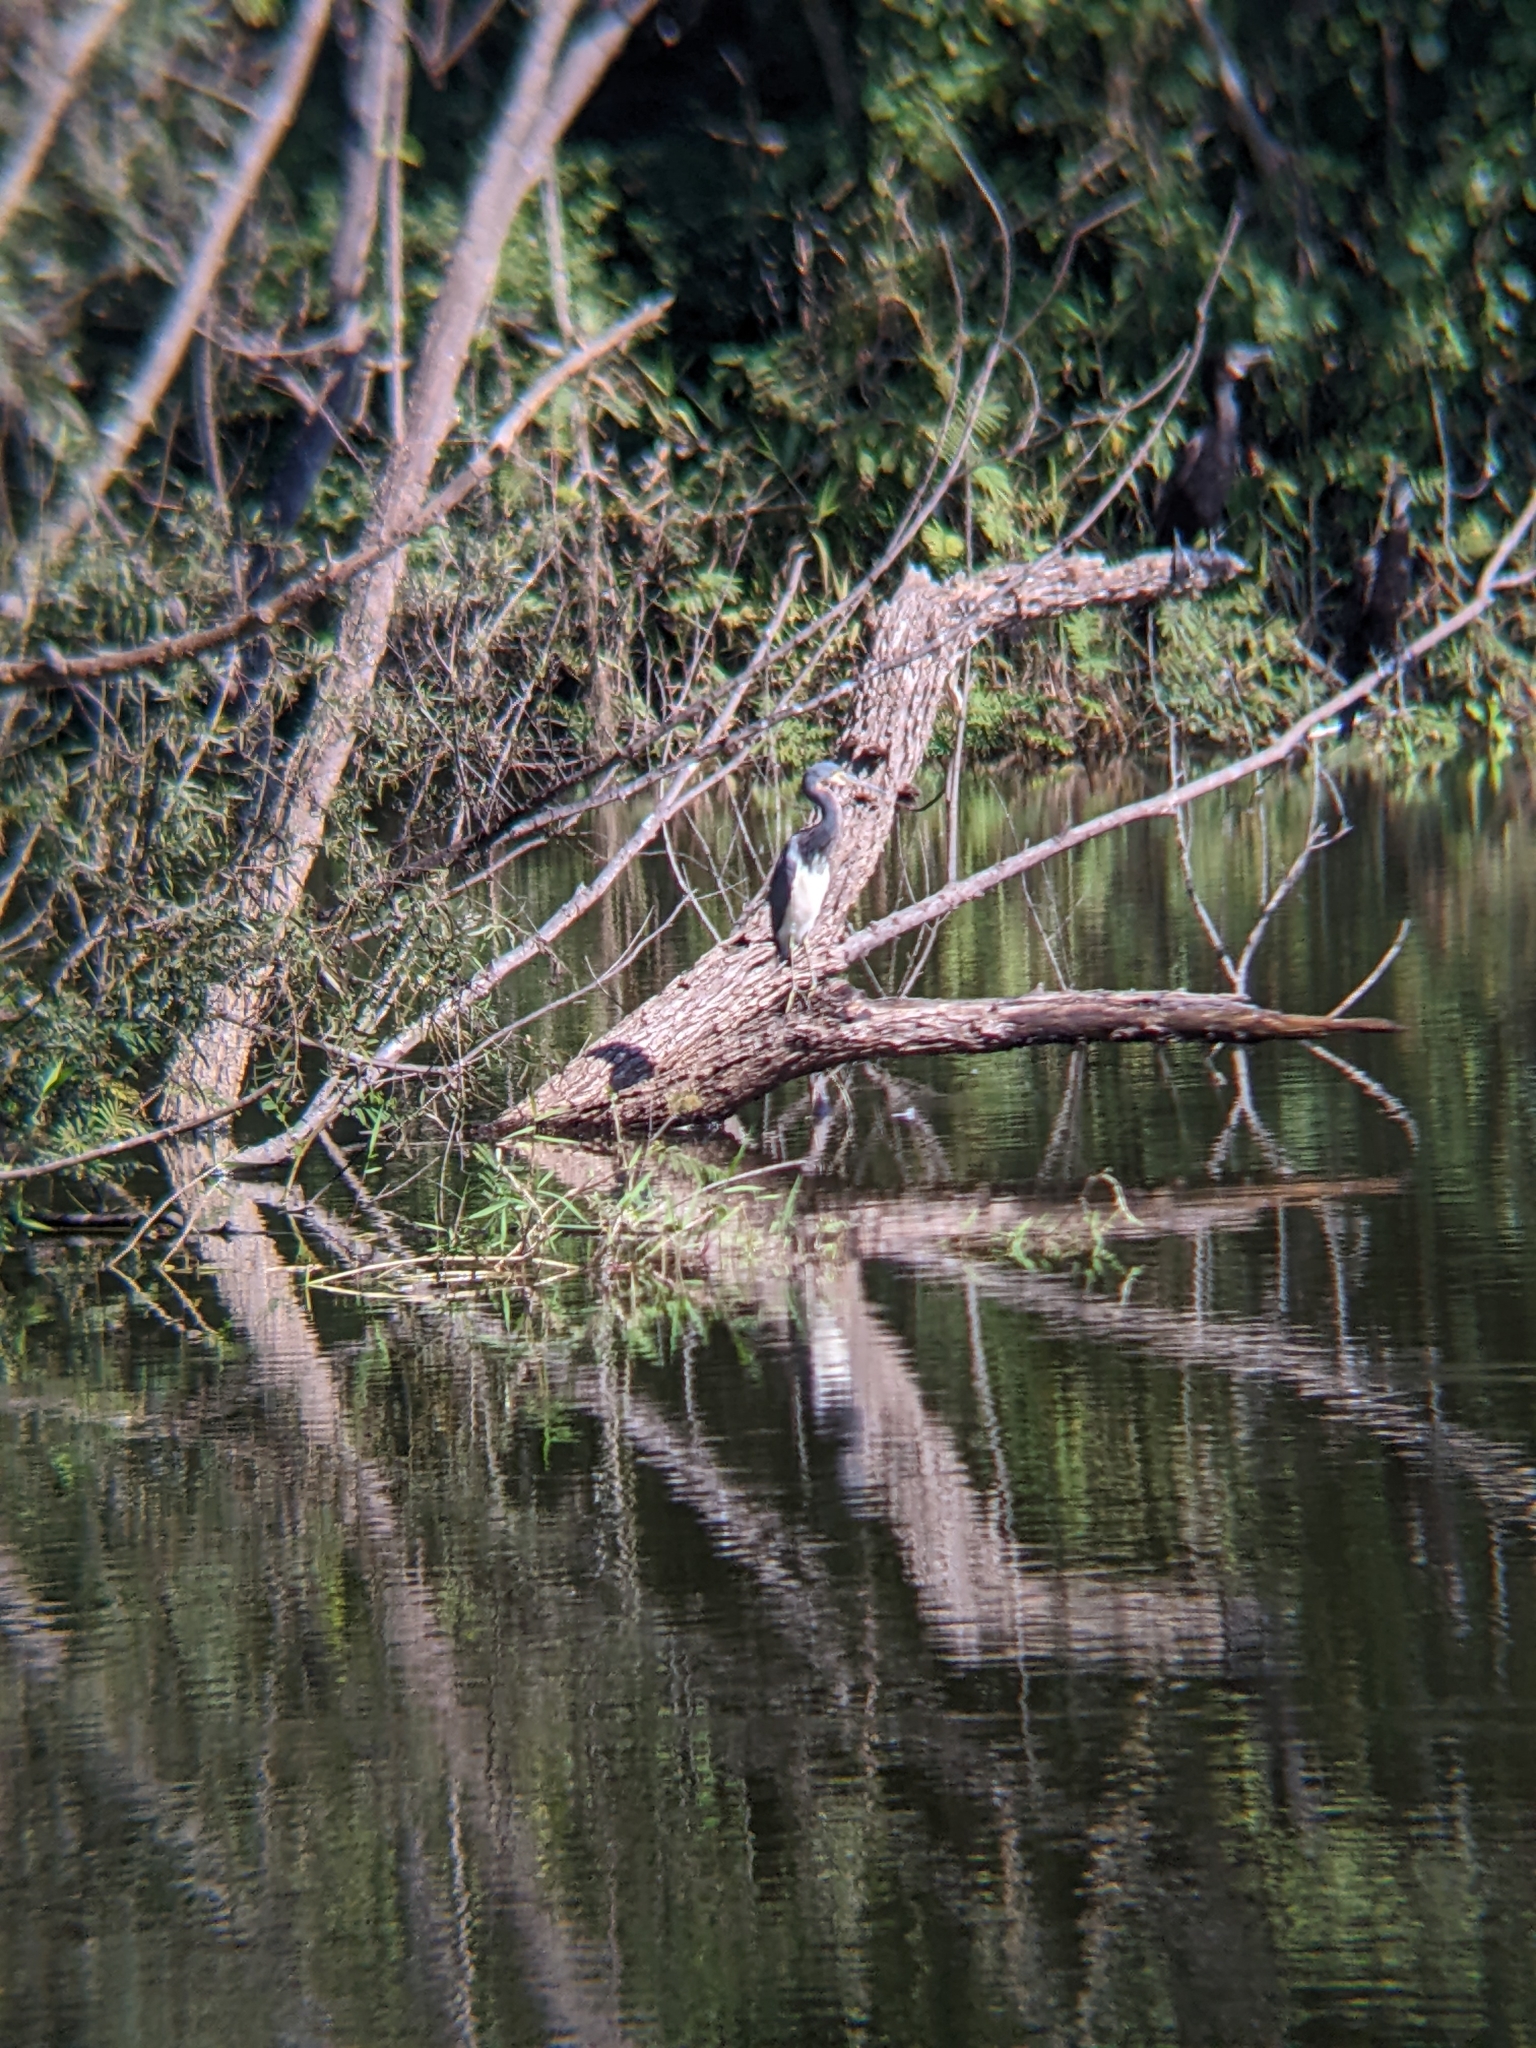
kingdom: Animalia
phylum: Chordata
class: Aves
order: Pelecaniformes
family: Ardeidae
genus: Egretta
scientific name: Egretta tricolor
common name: Tricolored heron
